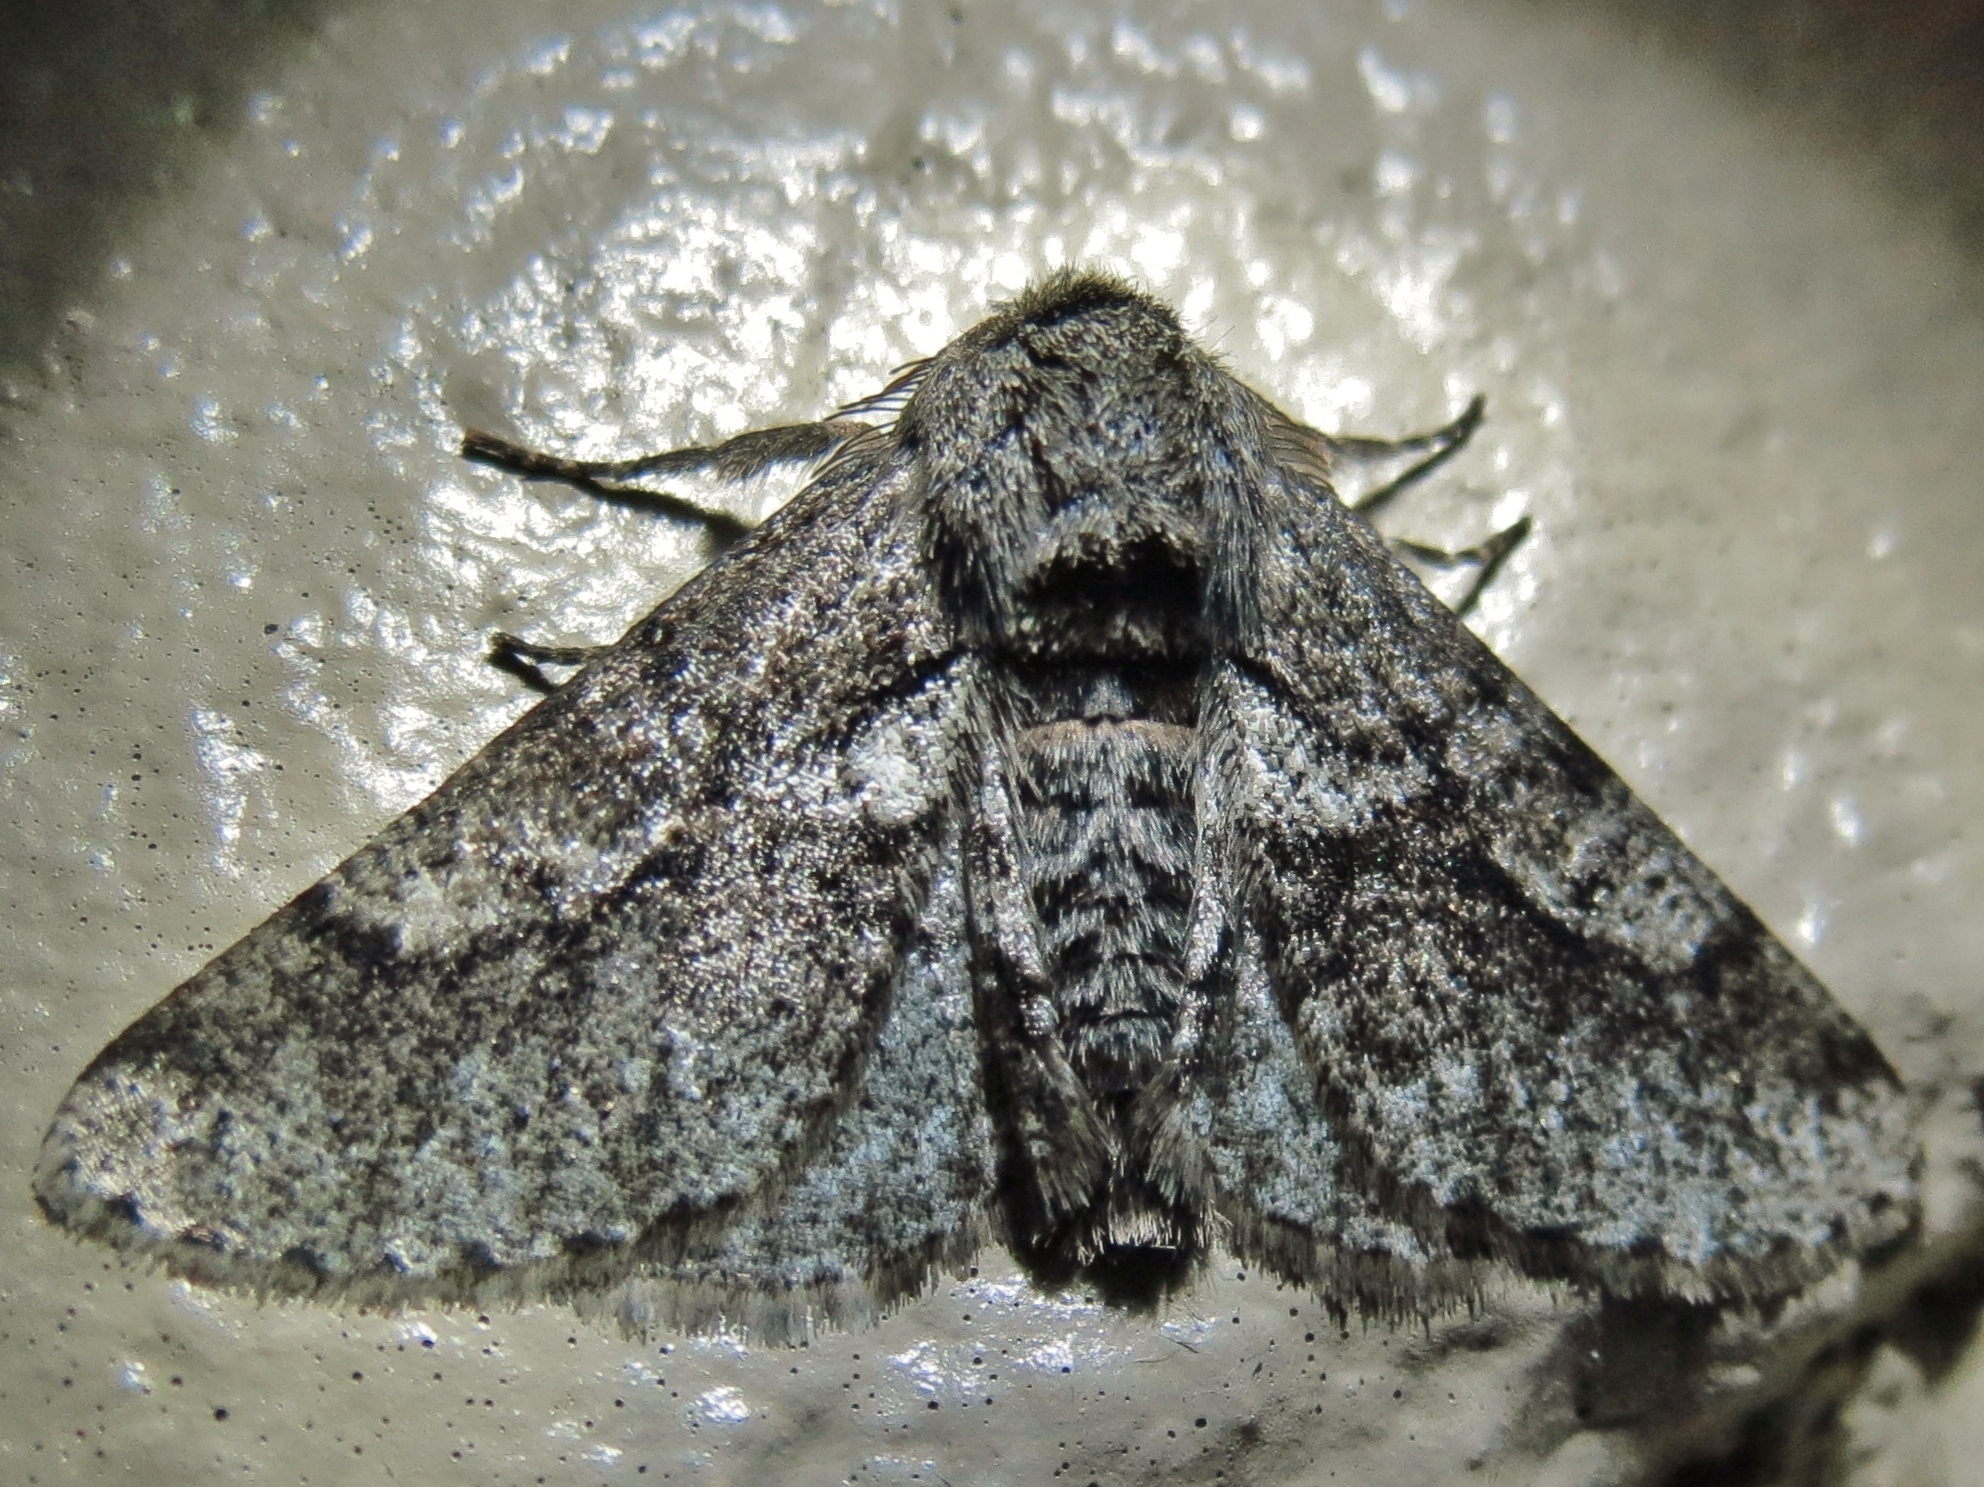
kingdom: Animalia
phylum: Arthropoda
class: Insecta
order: Lepidoptera
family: Geometridae
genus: Lycia
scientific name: Lycia ypsilon
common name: Wooly gray
